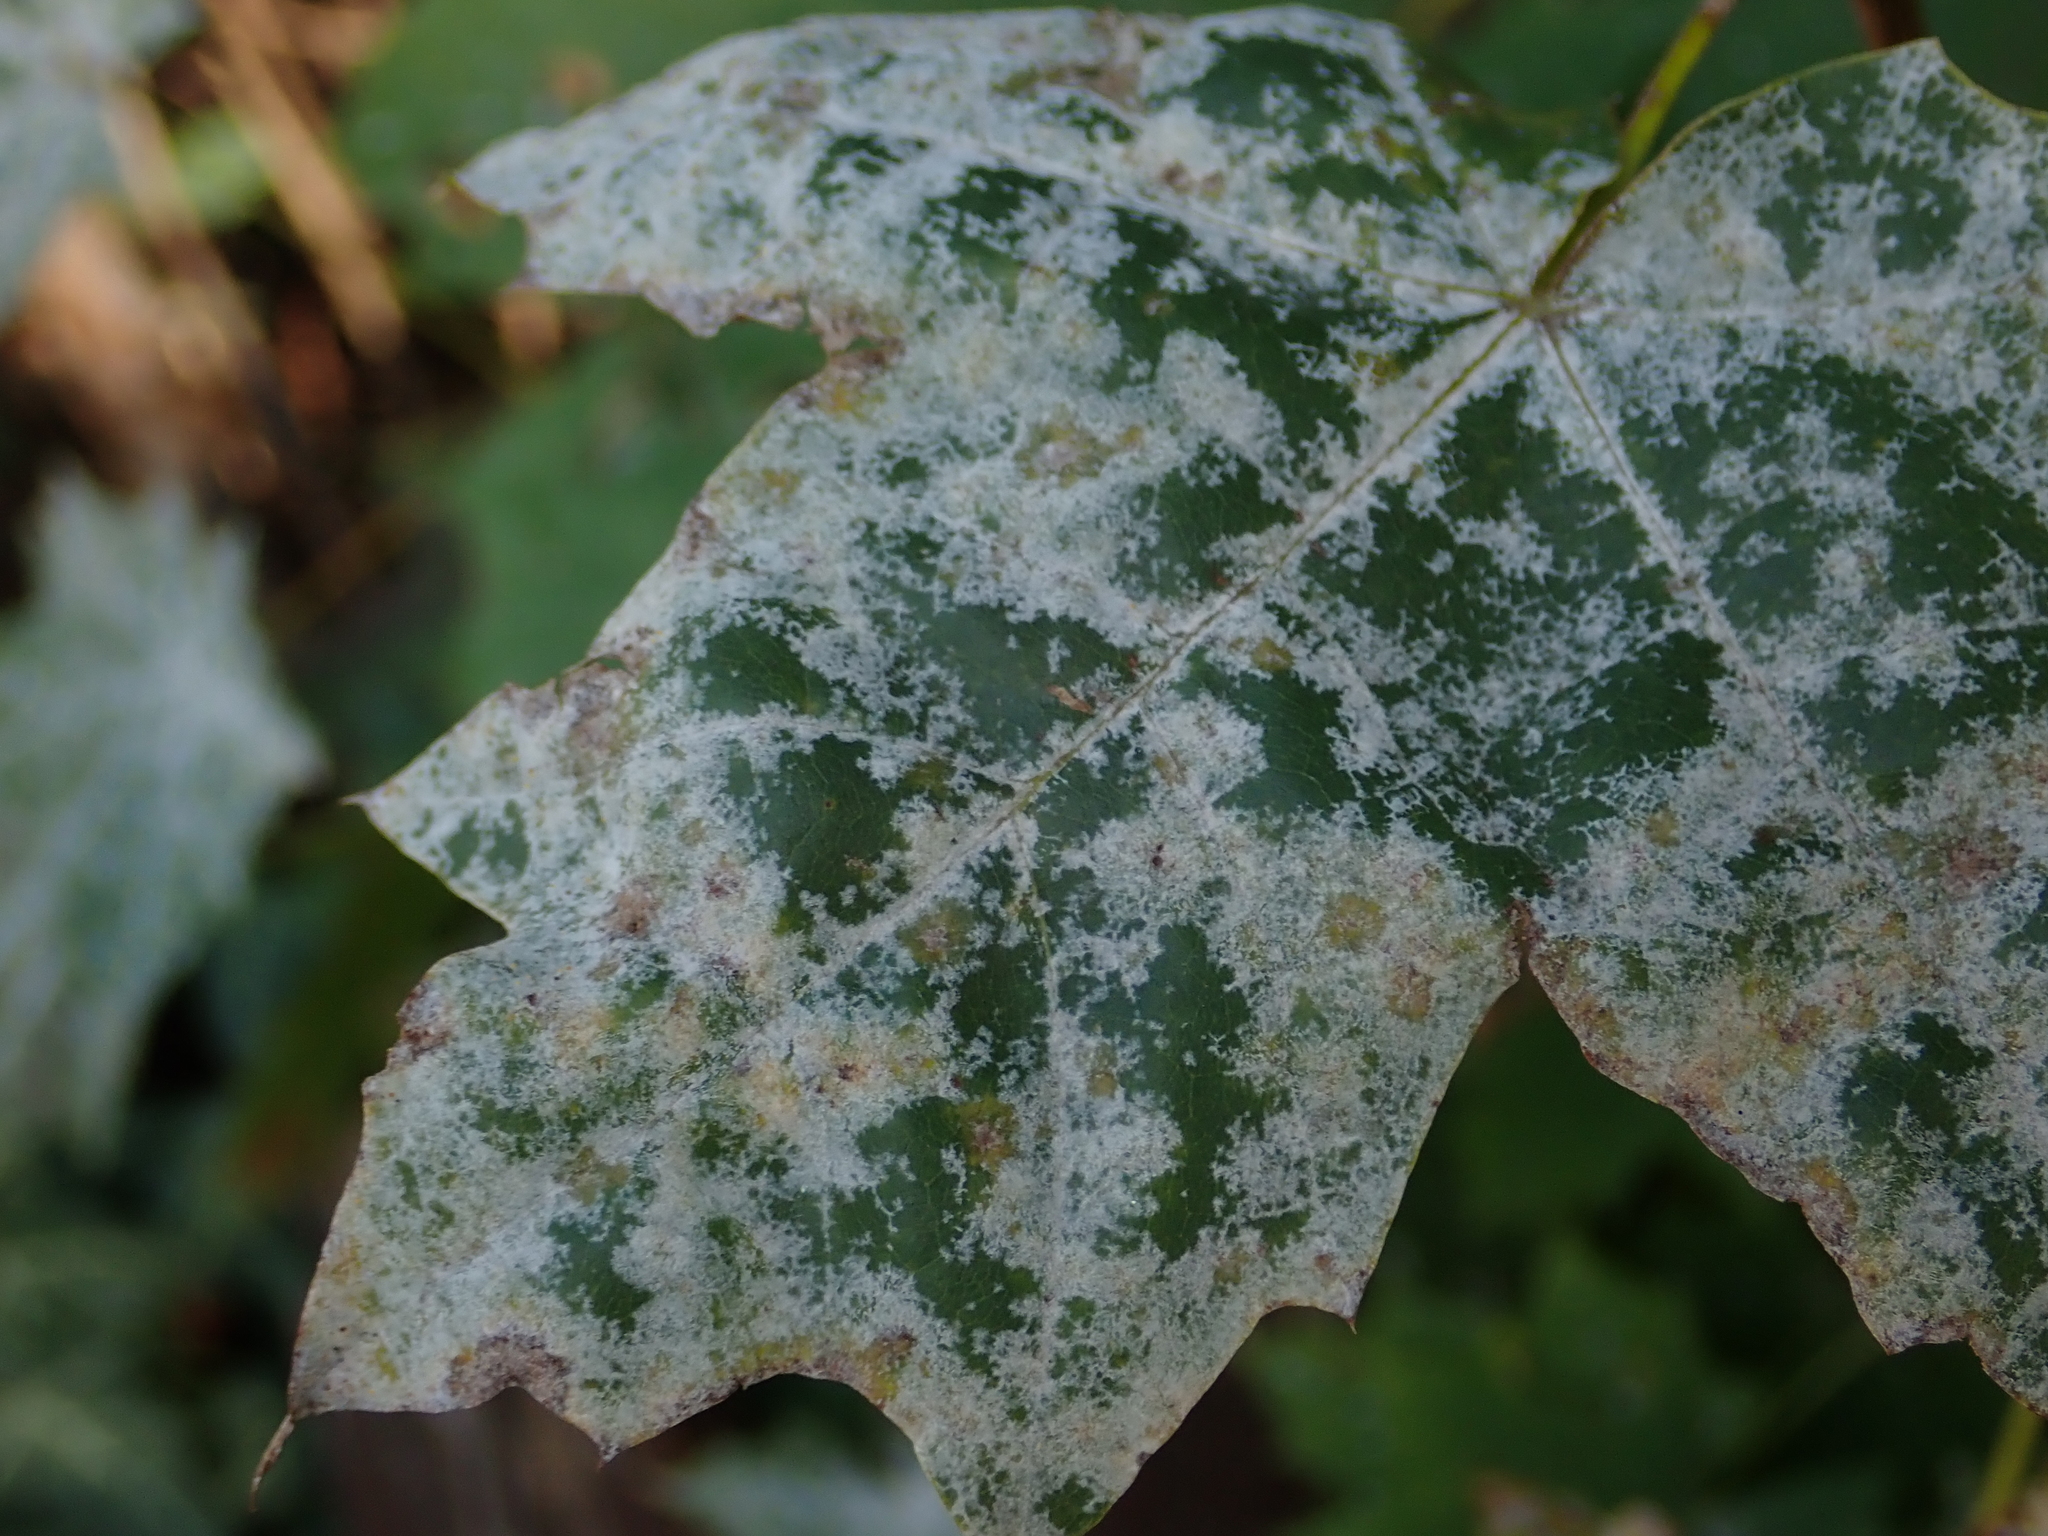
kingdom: Fungi
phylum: Ascomycota
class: Leotiomycetes
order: Helotiales
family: Erysiphaceae
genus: Sawadaea
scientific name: Sawadaea bicornis
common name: Maple mildew
